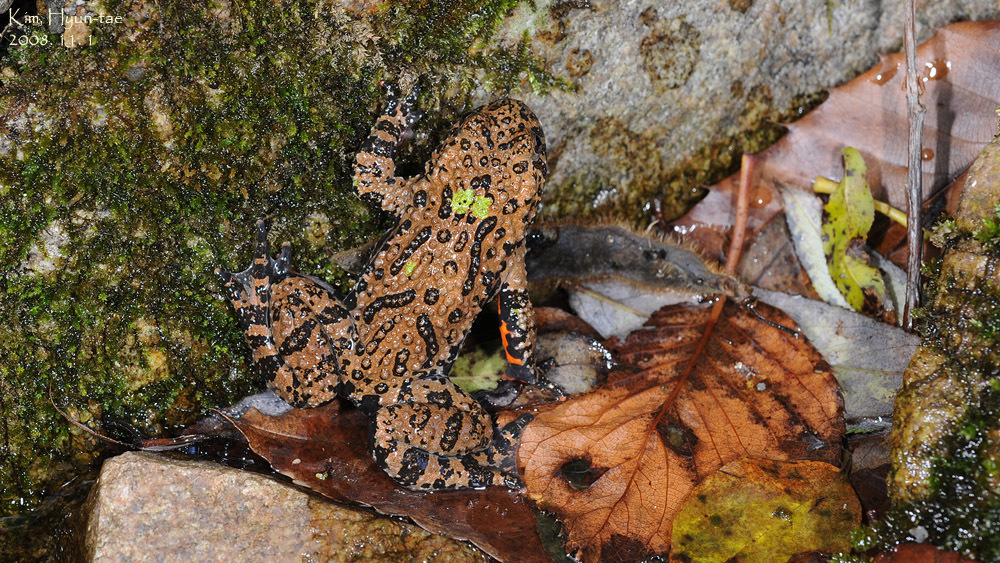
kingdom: Animalia
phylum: Chordata
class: Amphibia
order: Anura
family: Bombinatoridae
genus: Bombina
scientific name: Bombina orientalis
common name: Oriental firebelly toad
